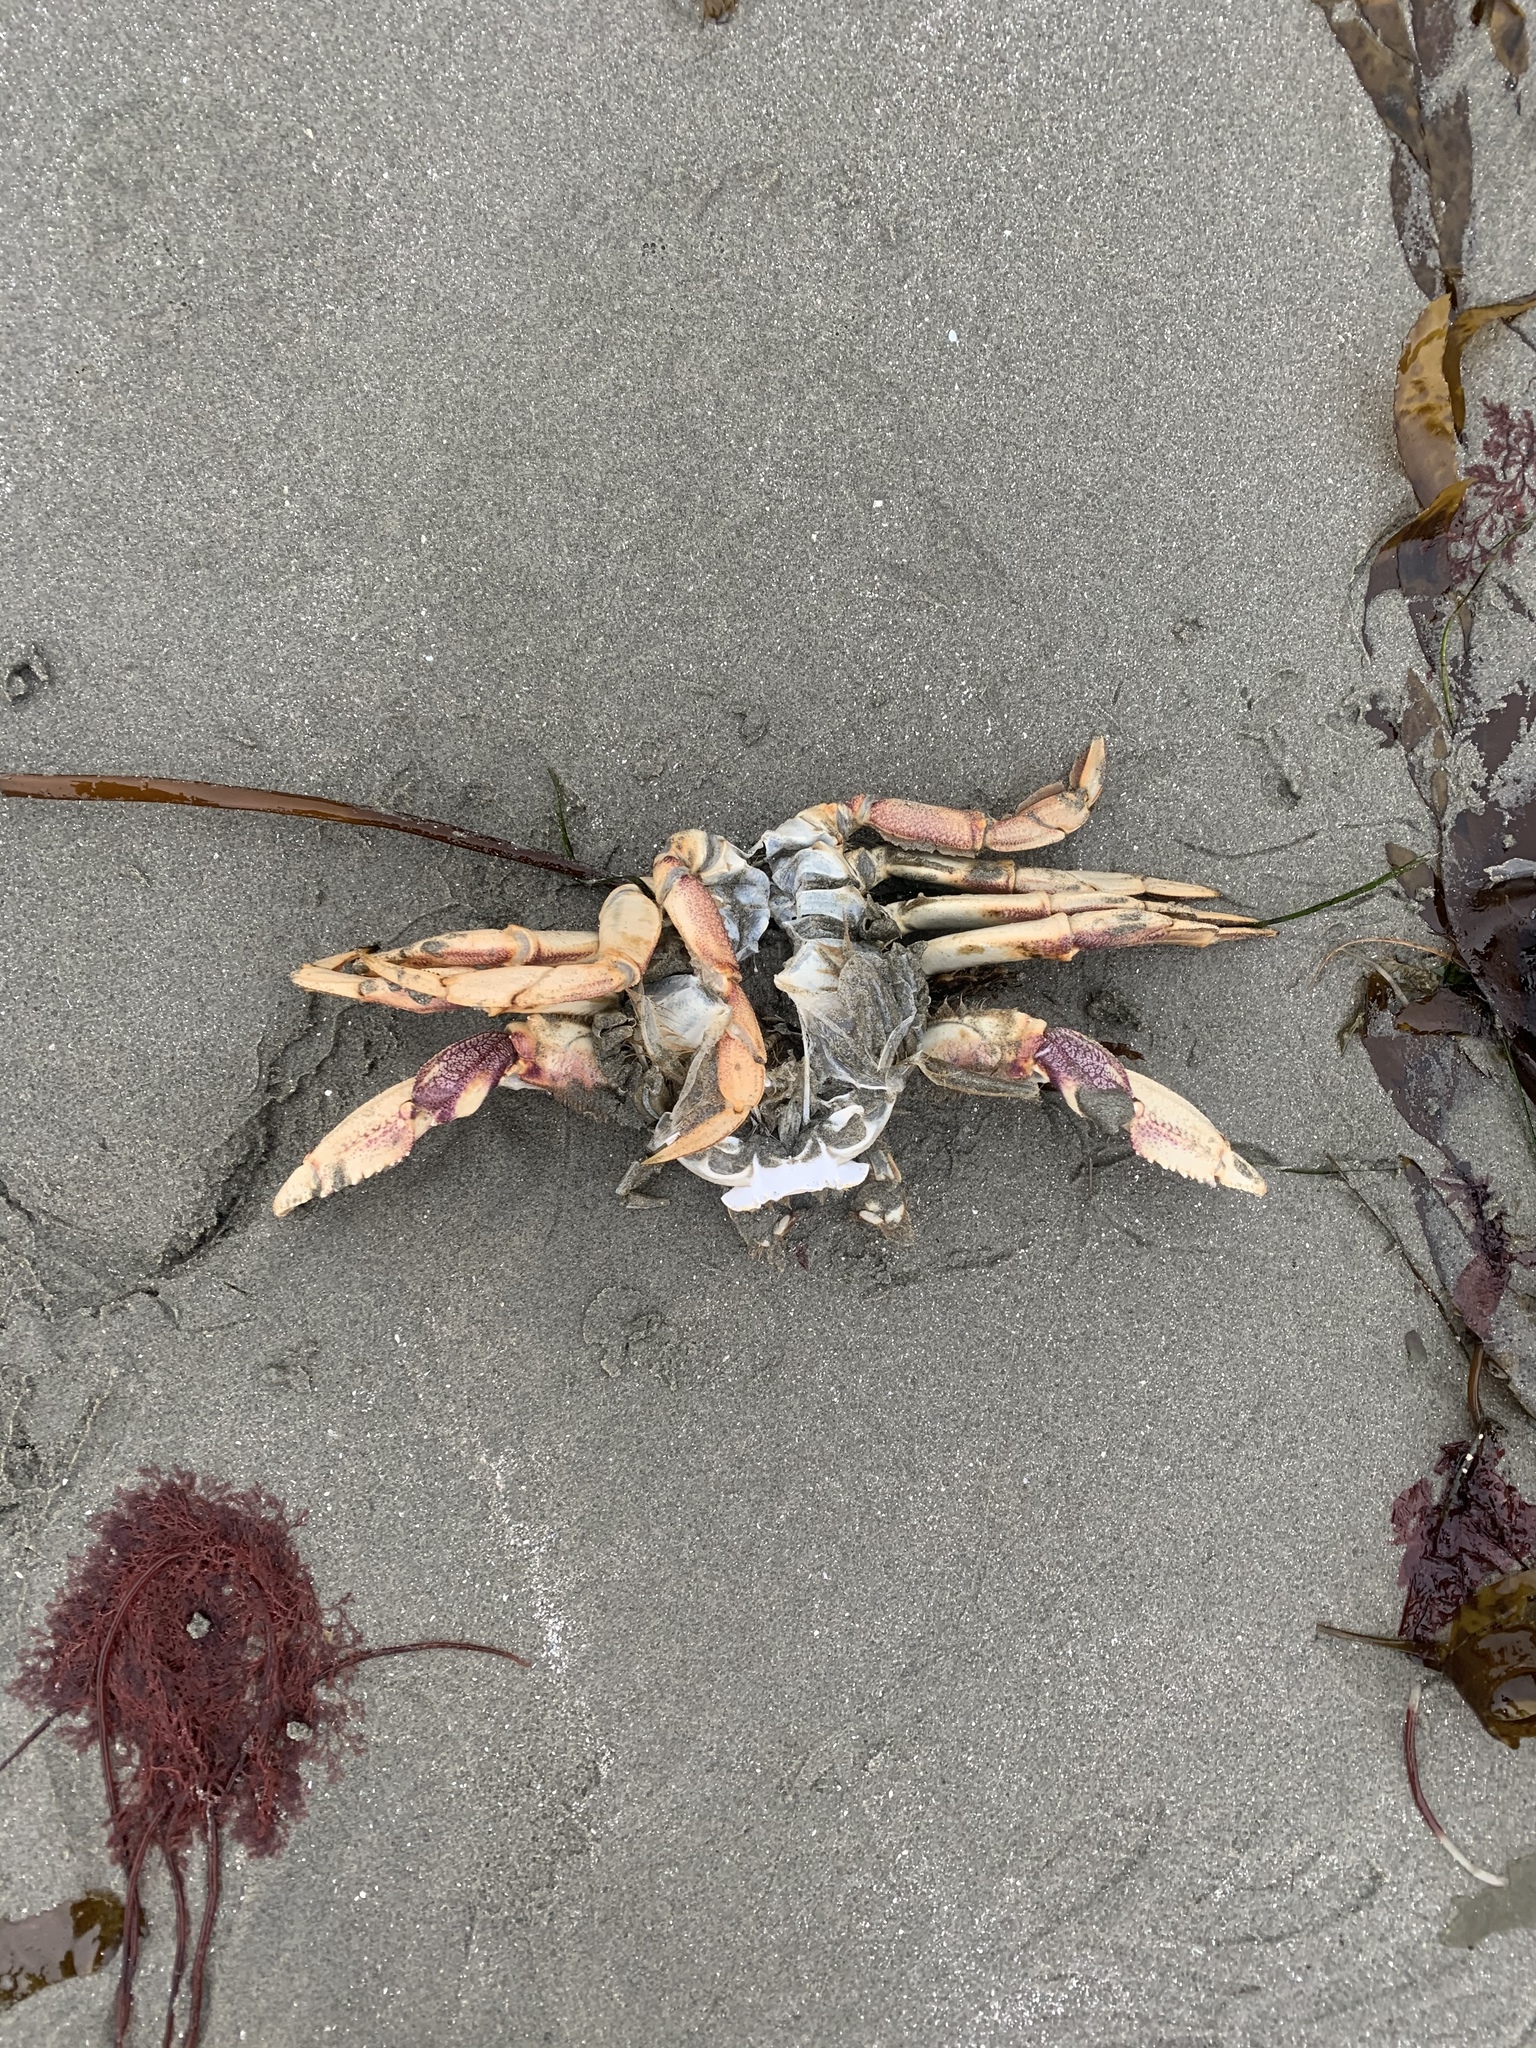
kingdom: Animalia
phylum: Arthropoda
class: Malacostraca
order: Decapoda
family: Cancridae
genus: Metacarcinus
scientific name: Metacarcinus magister
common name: Californian crab
